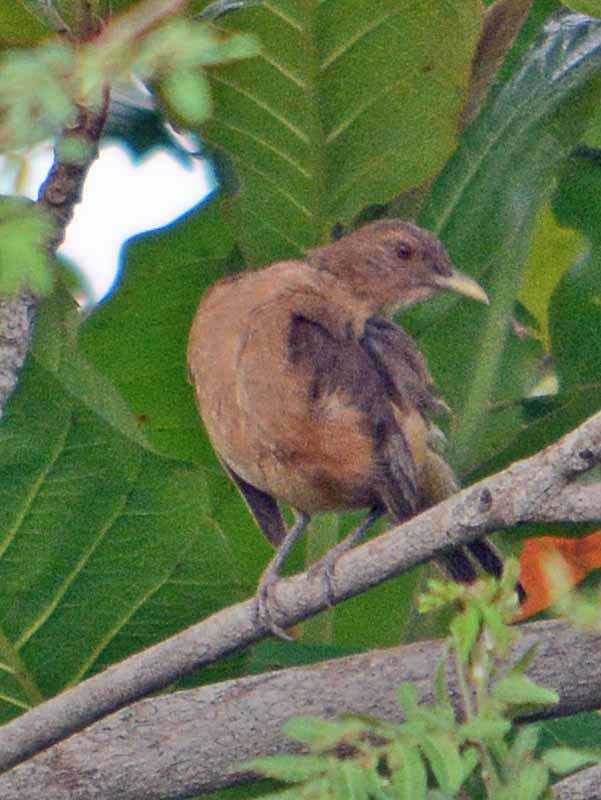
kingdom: Animalia
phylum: Chordata
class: Aves
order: Passeriformes
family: Turdidae
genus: Turdus
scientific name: Turdus grayi
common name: Clay-colored thrush
